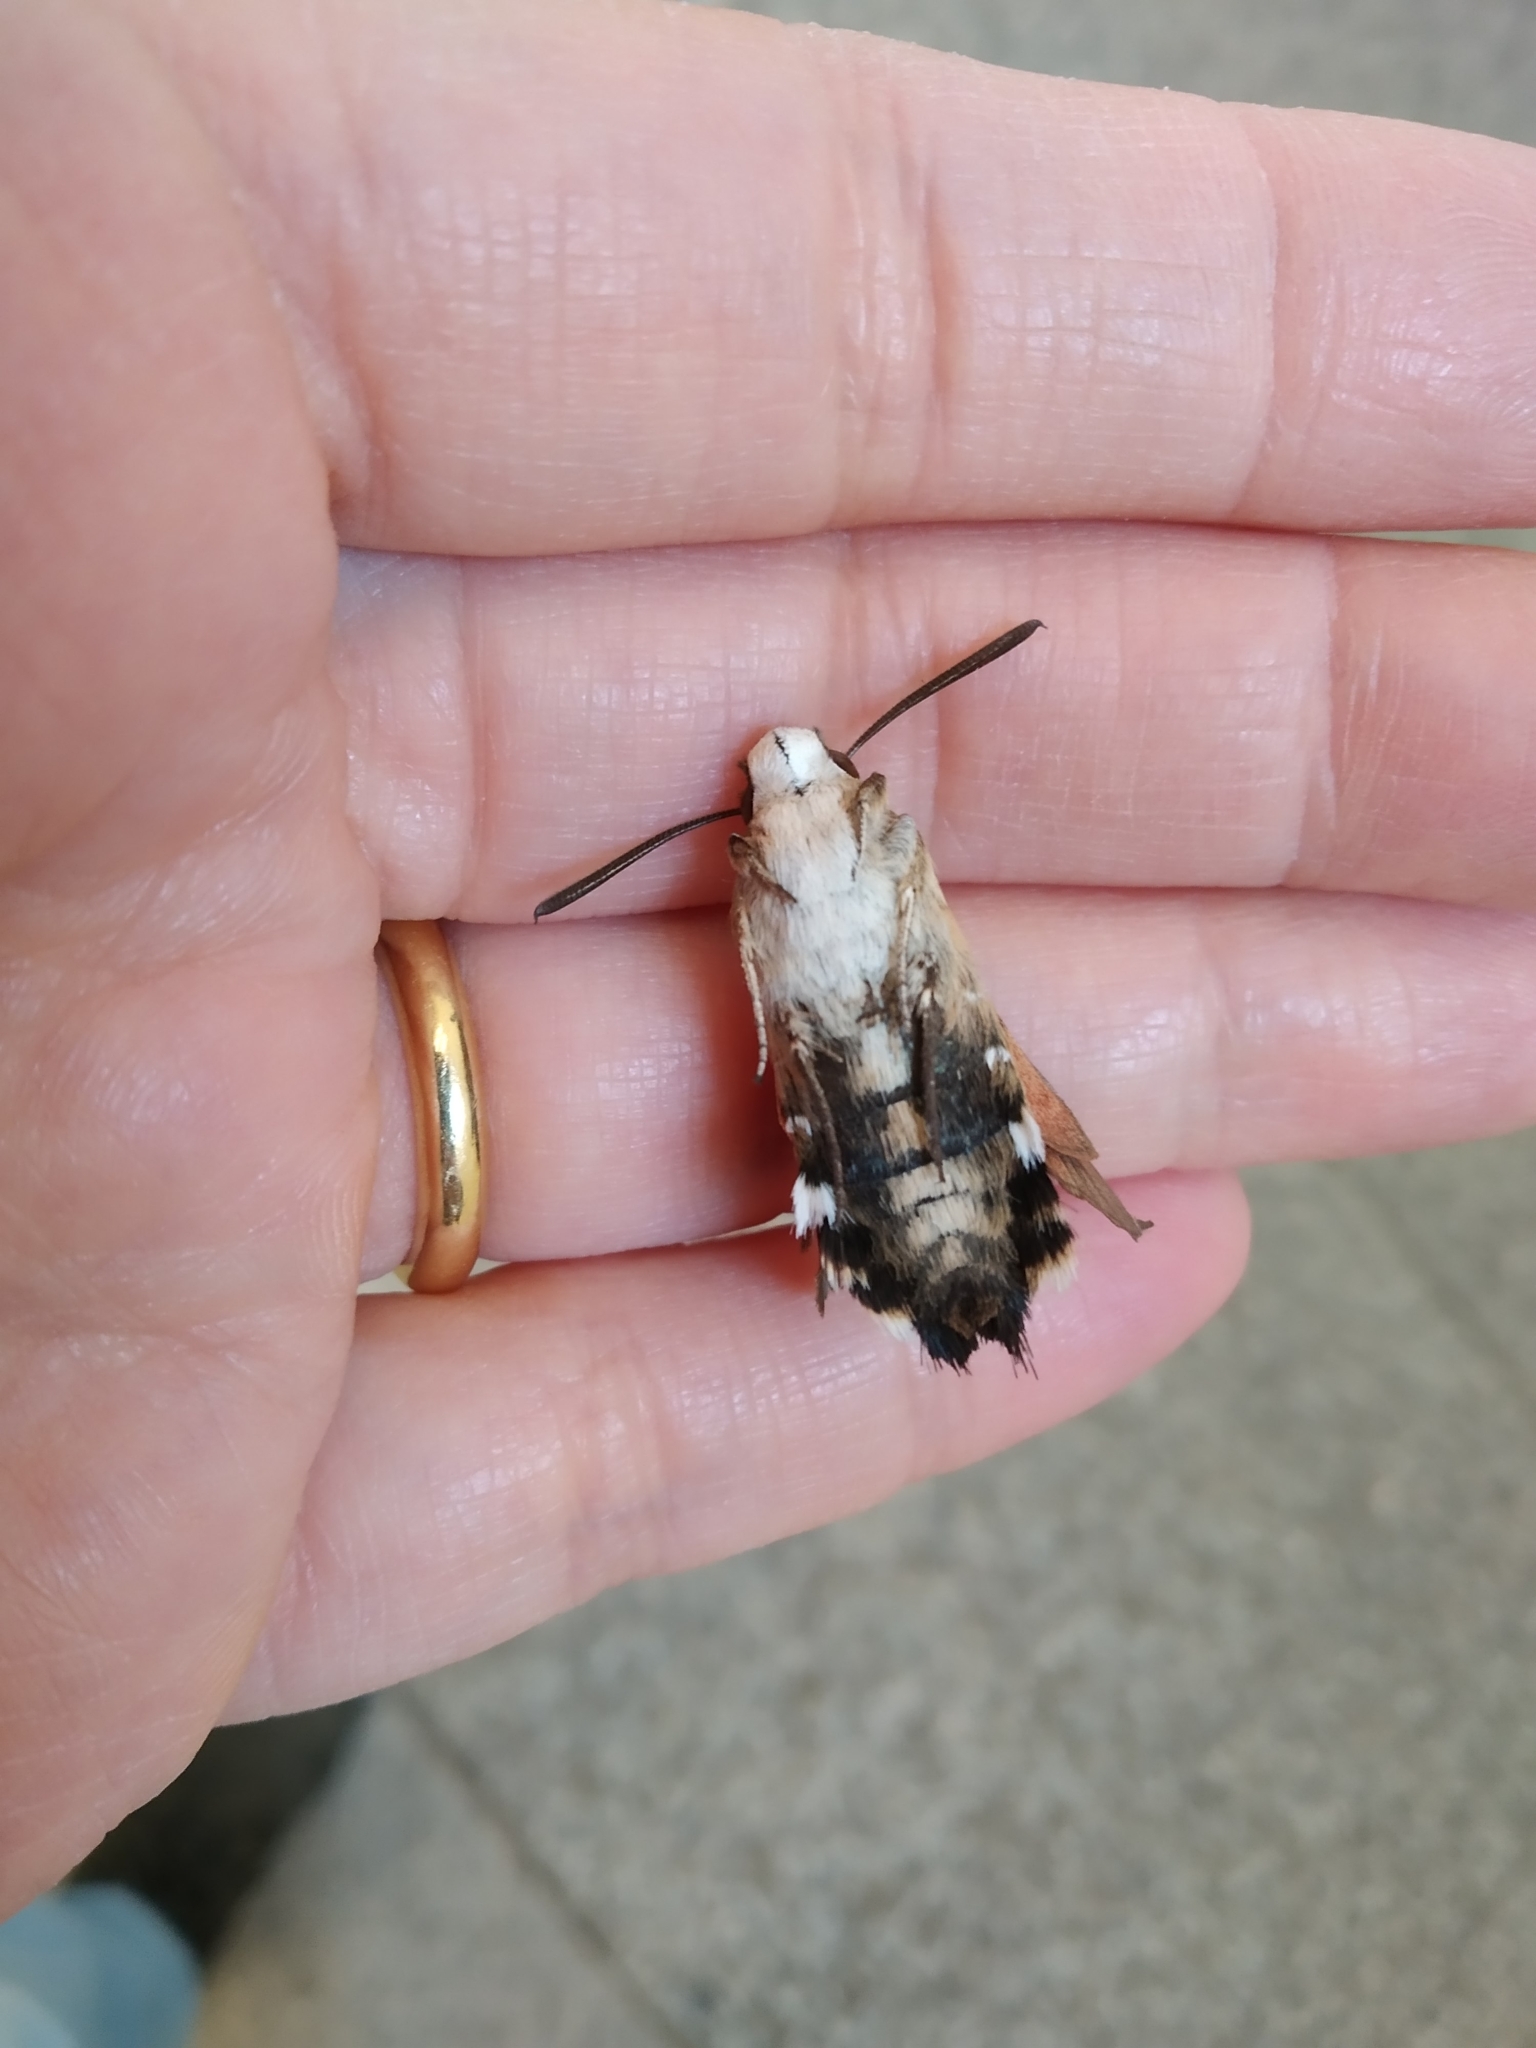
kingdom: Animalia
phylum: Arthropoda
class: Insecta
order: Lepidoptera
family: Sphingidae
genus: Macroglossum
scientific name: Macroglossum stellatarum
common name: Humming-bird hawk-moth
